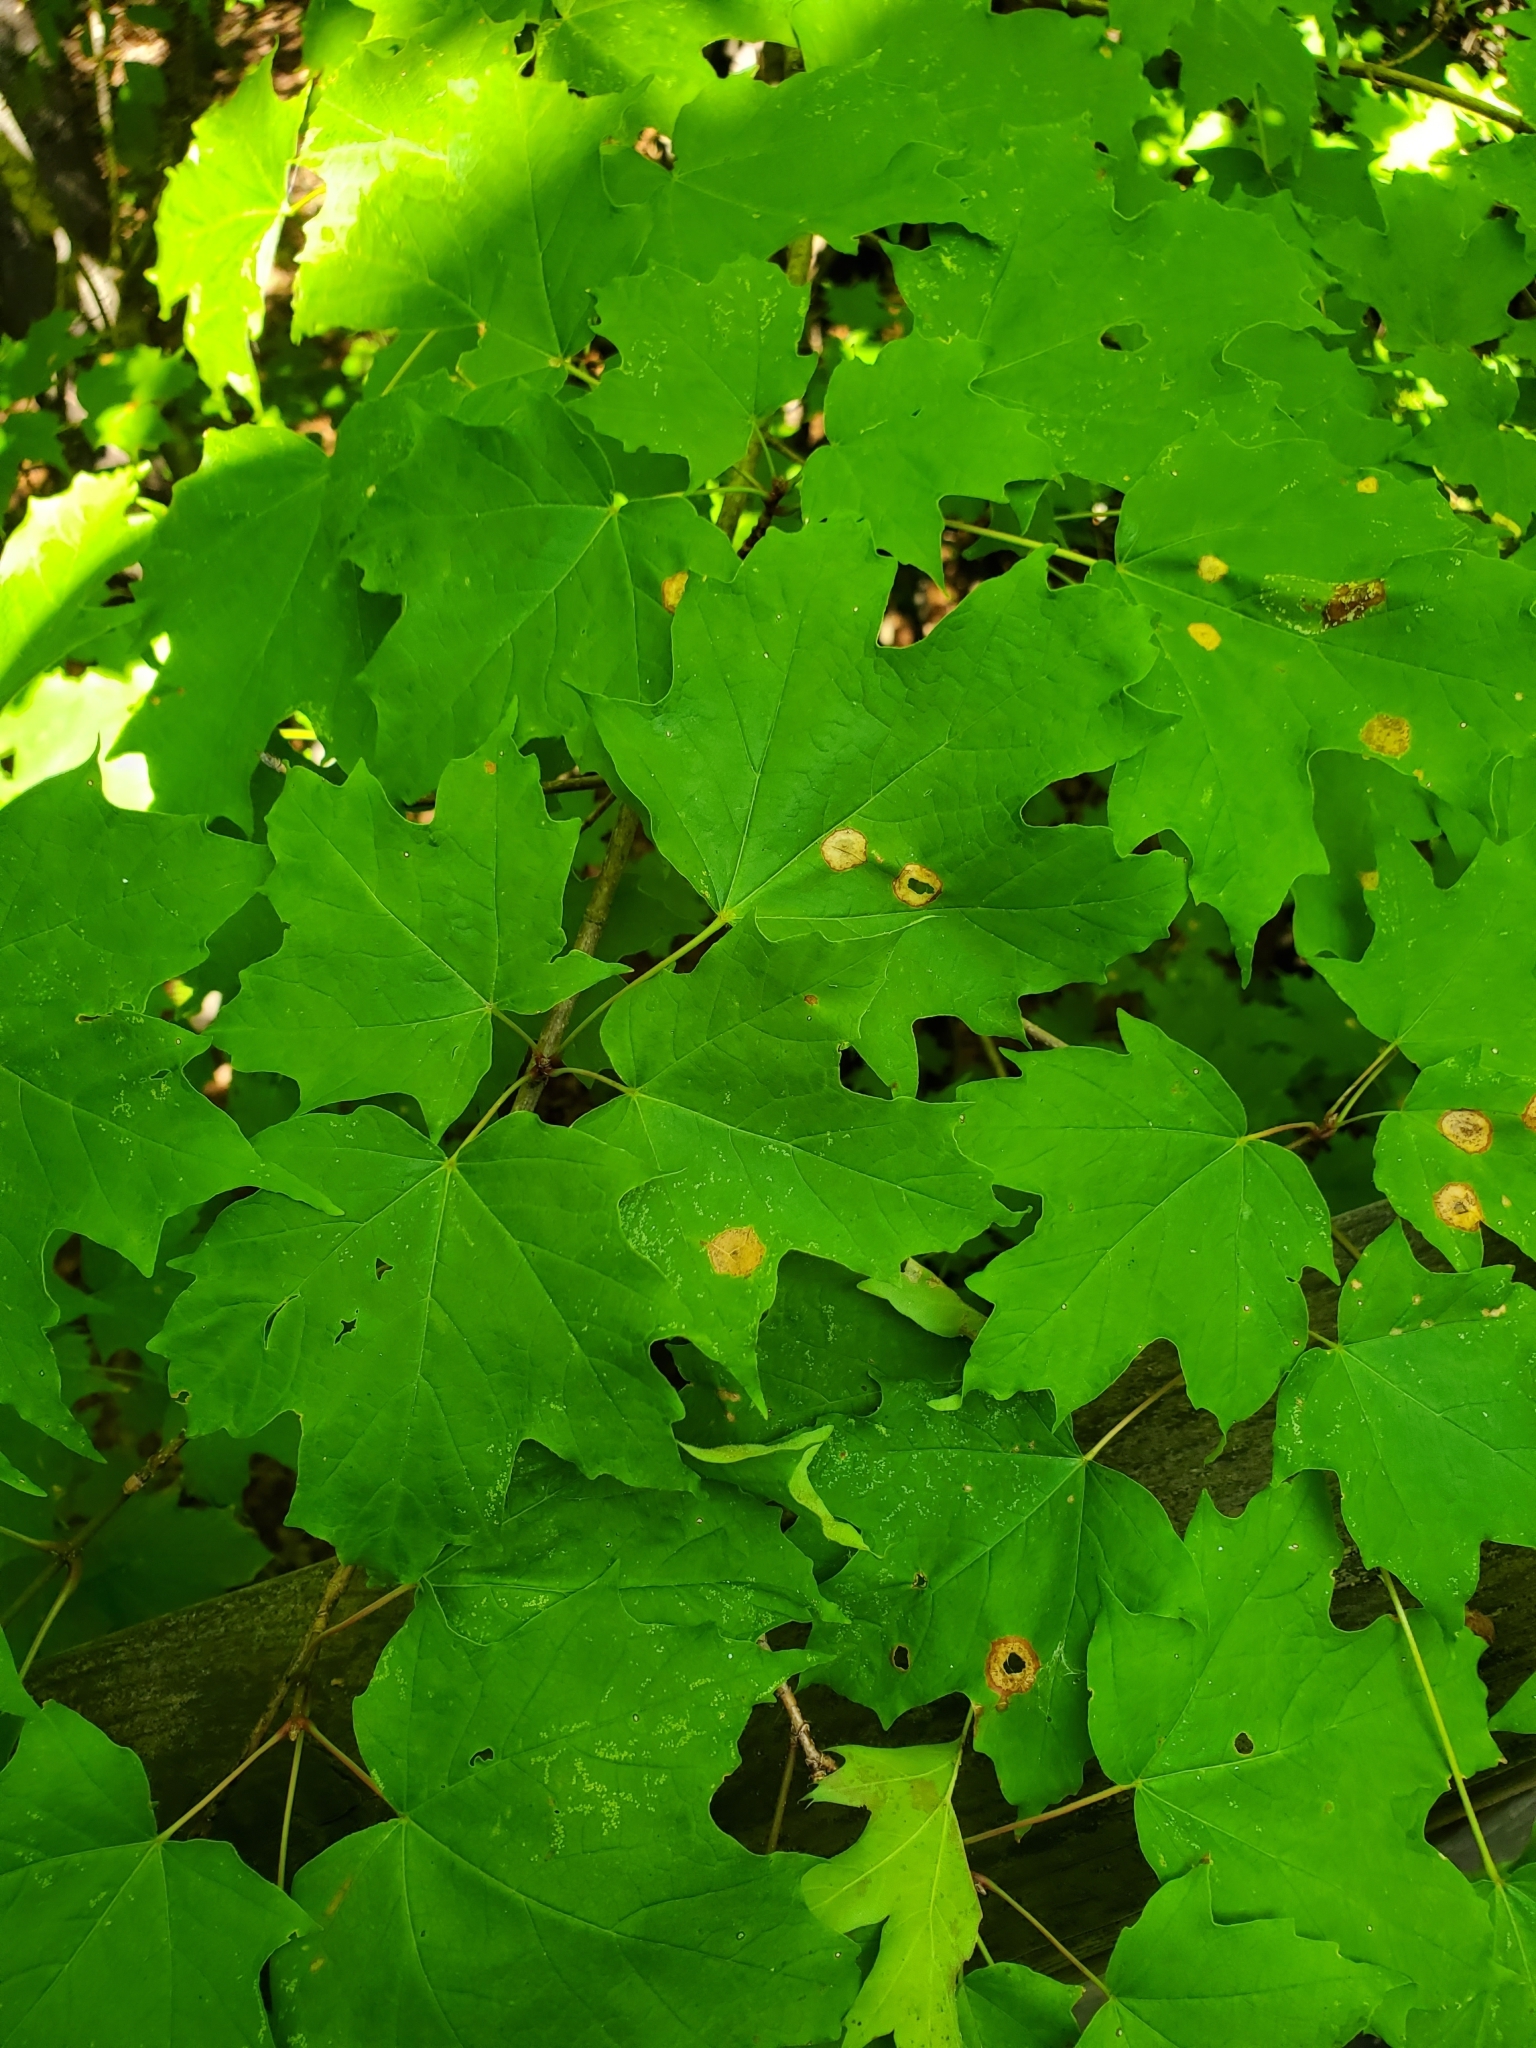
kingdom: Plantae
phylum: Tracheophyta
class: Magnoliopsida
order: Sapindales
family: Sapindaceae
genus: Acer
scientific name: Acer saccharum
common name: Sugar maple
